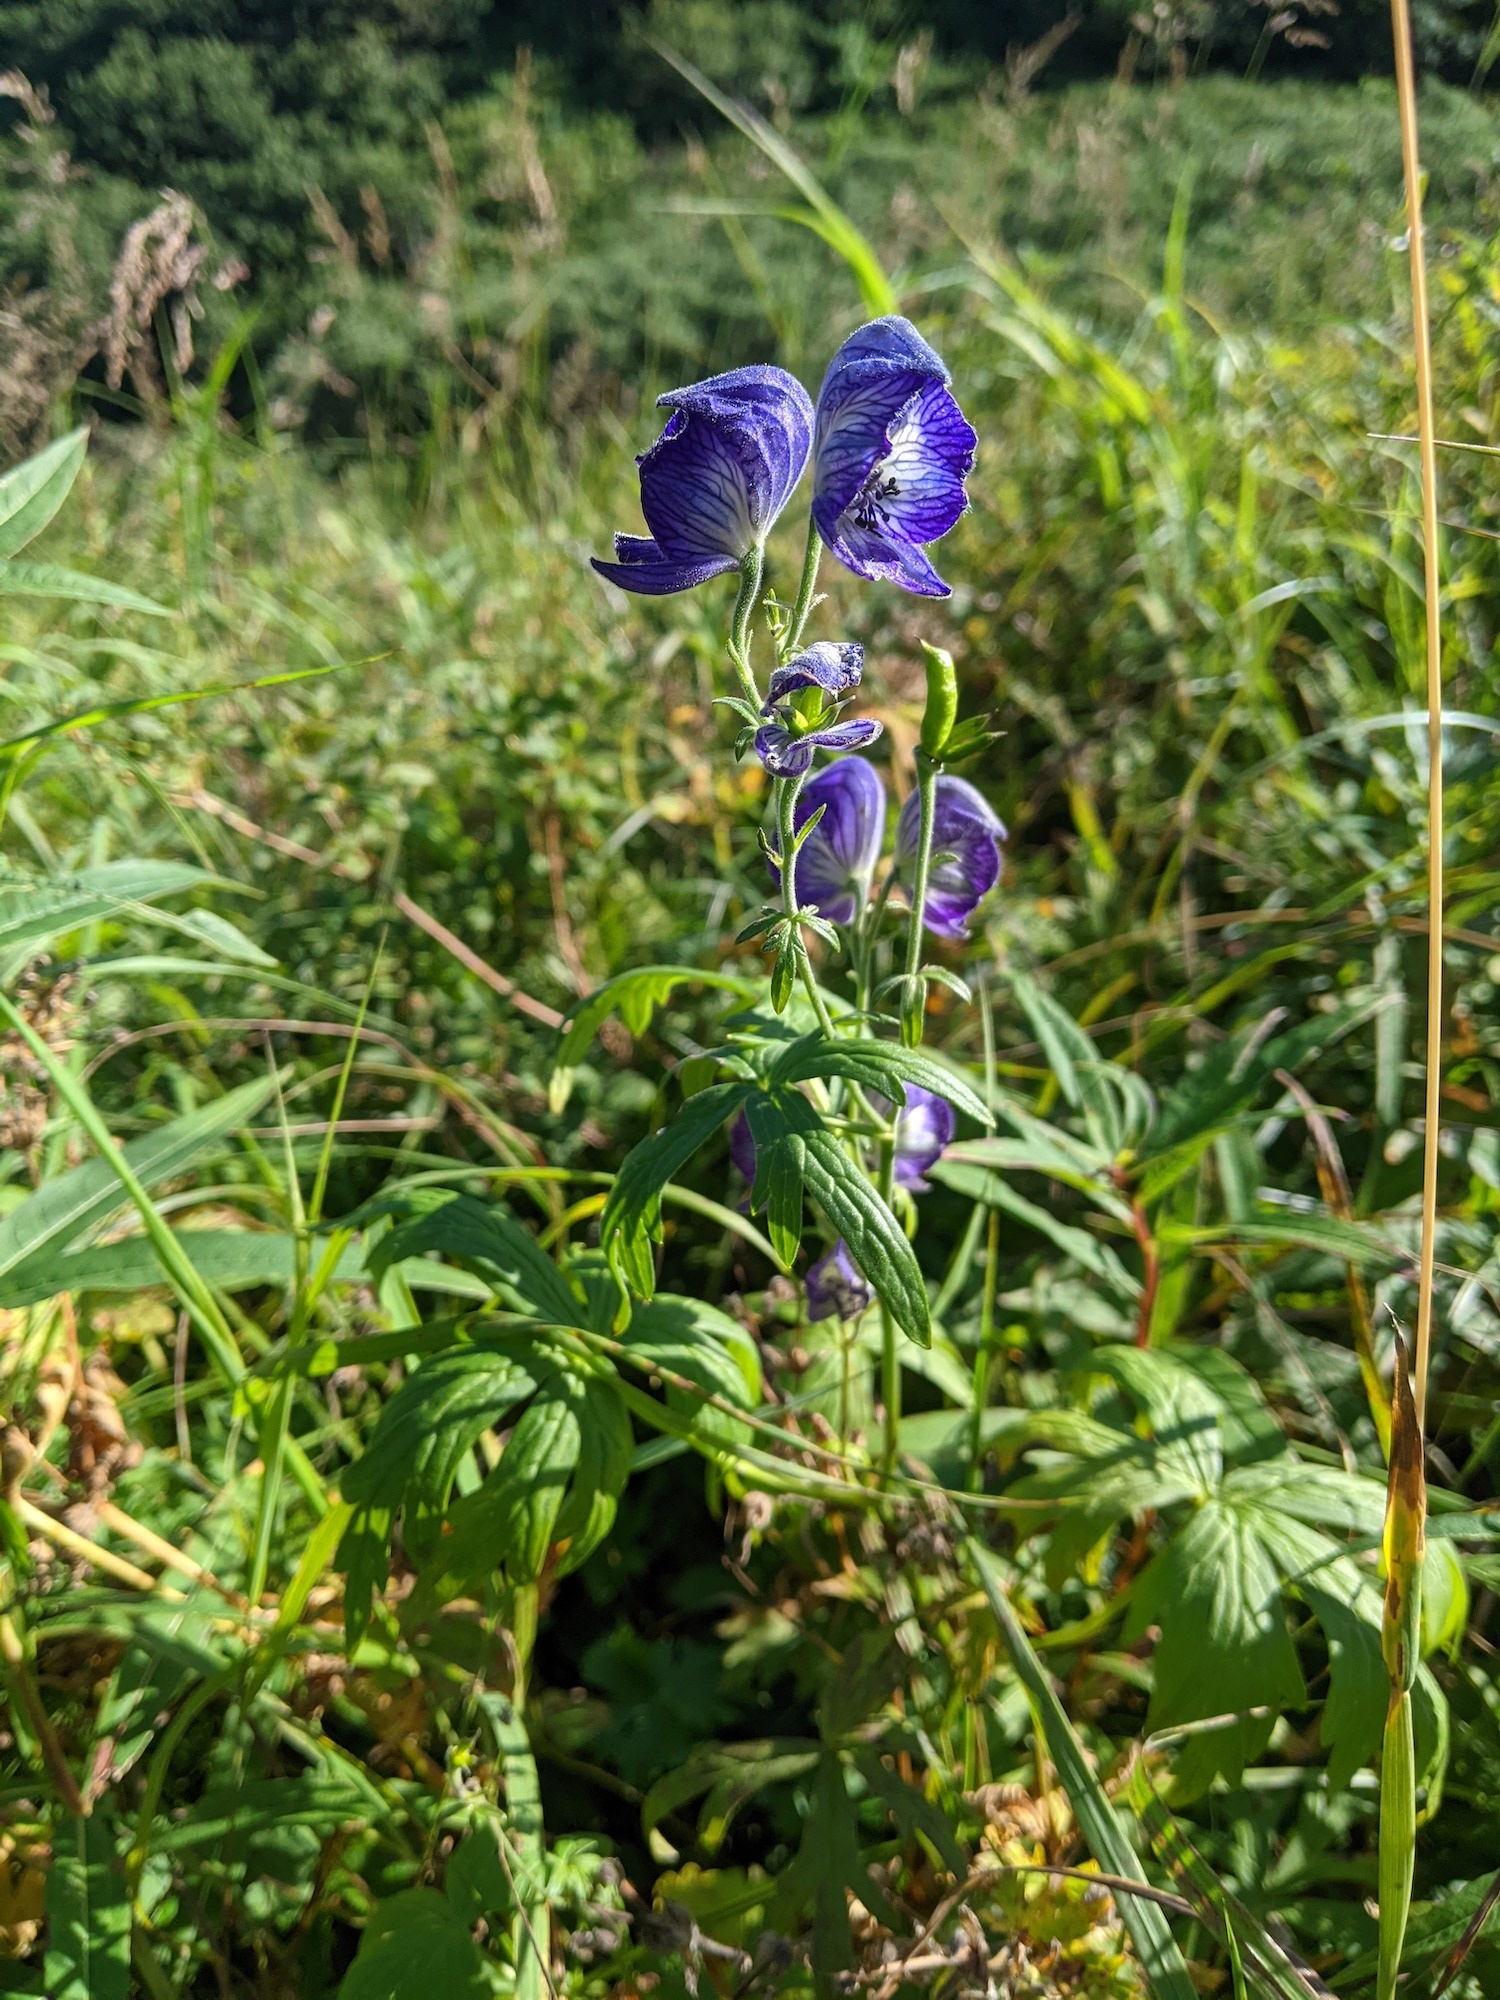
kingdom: Plantae
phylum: Tracheophyta
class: Magnoliopsida
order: Ranunculales
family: Ranunculaceae
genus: Aconitum
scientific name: Aconitum delphiniifolium
